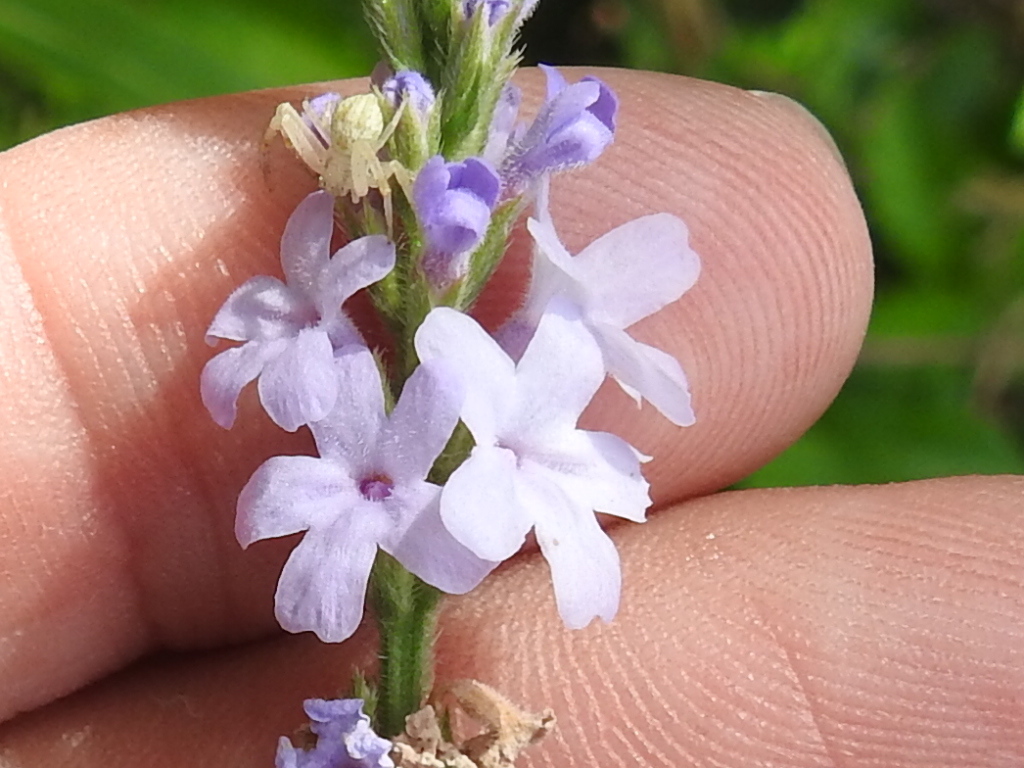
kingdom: Plantae
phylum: Tracheophyta
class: Magnoliopsida
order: Lamiales
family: Verbenaceae
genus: Verbena
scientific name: Verbena xutha
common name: Gulf vervain
